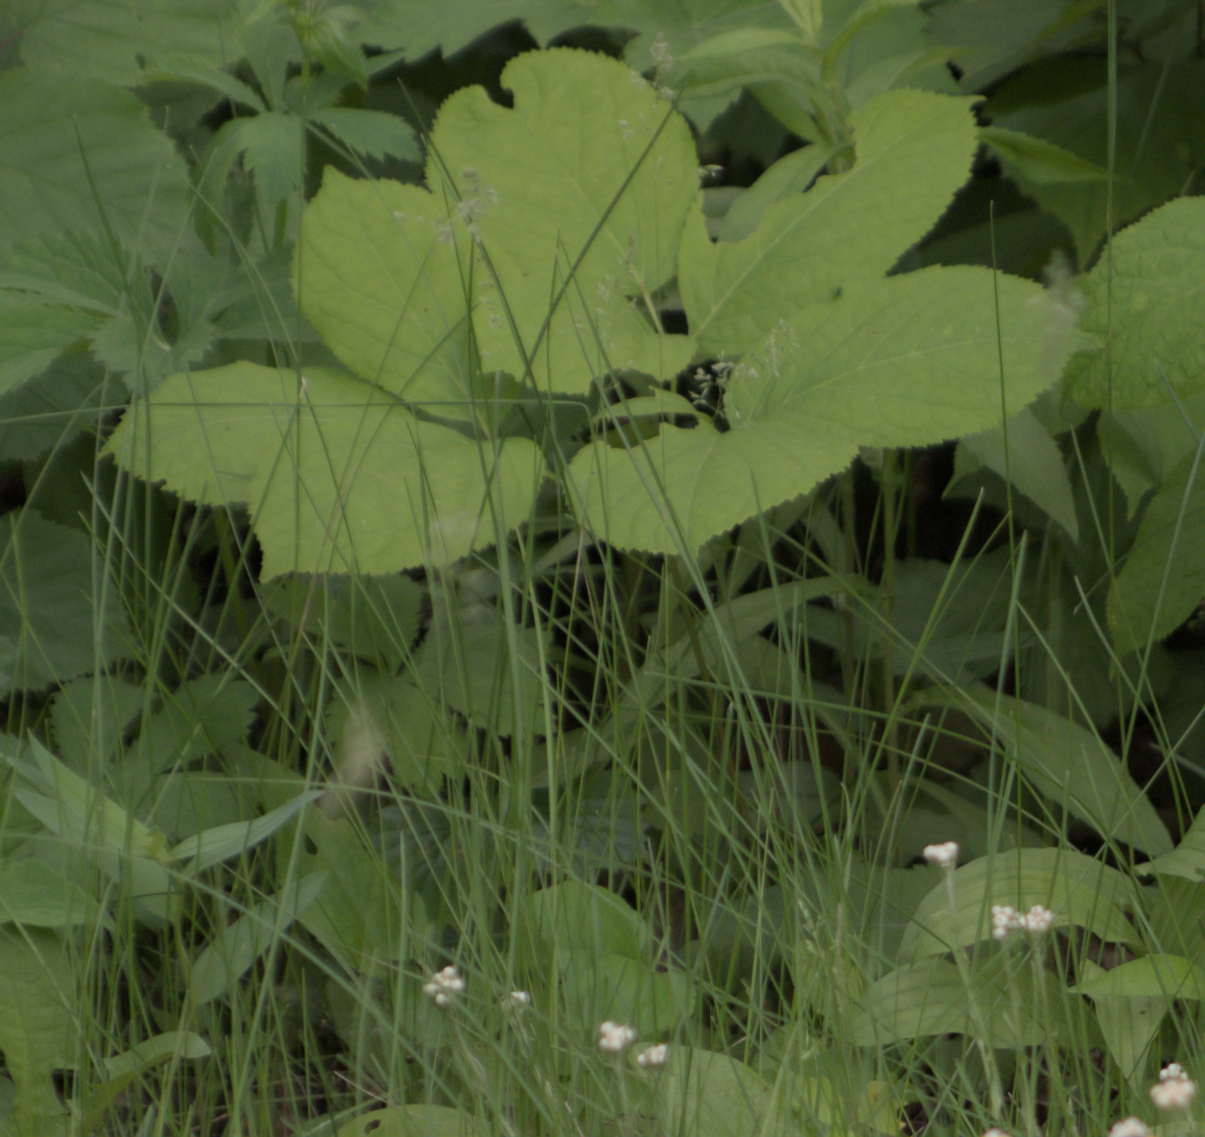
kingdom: Plantae
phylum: Tracheophyta
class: Magnoliopsida
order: Apiales
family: Araliaceae
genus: Aralia
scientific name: Aralia nudicaulis
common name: Wild sarsaparilla
